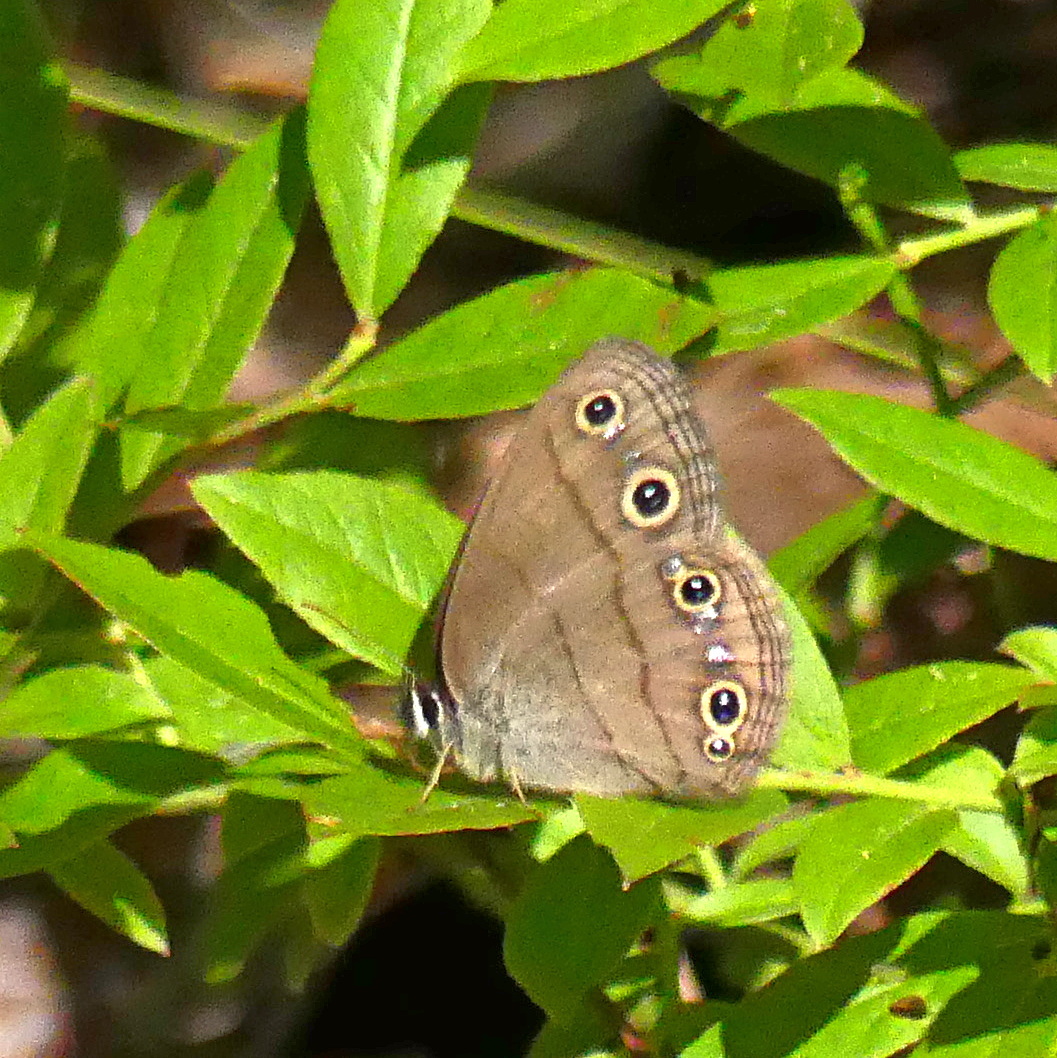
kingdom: Animalia
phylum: Arthropoda
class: Insecta
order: Lepidoptera
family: Nymphalidae
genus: Euptychia
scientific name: Euptychia cymela
